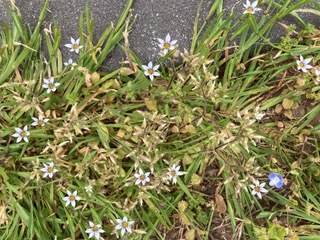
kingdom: Plantae
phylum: Tracheophyta
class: Liliopsida
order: Asparagales
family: Iridaceae
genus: Sisyrinchium
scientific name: Sisyrinchium micranthum
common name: Bermuda pigroot
